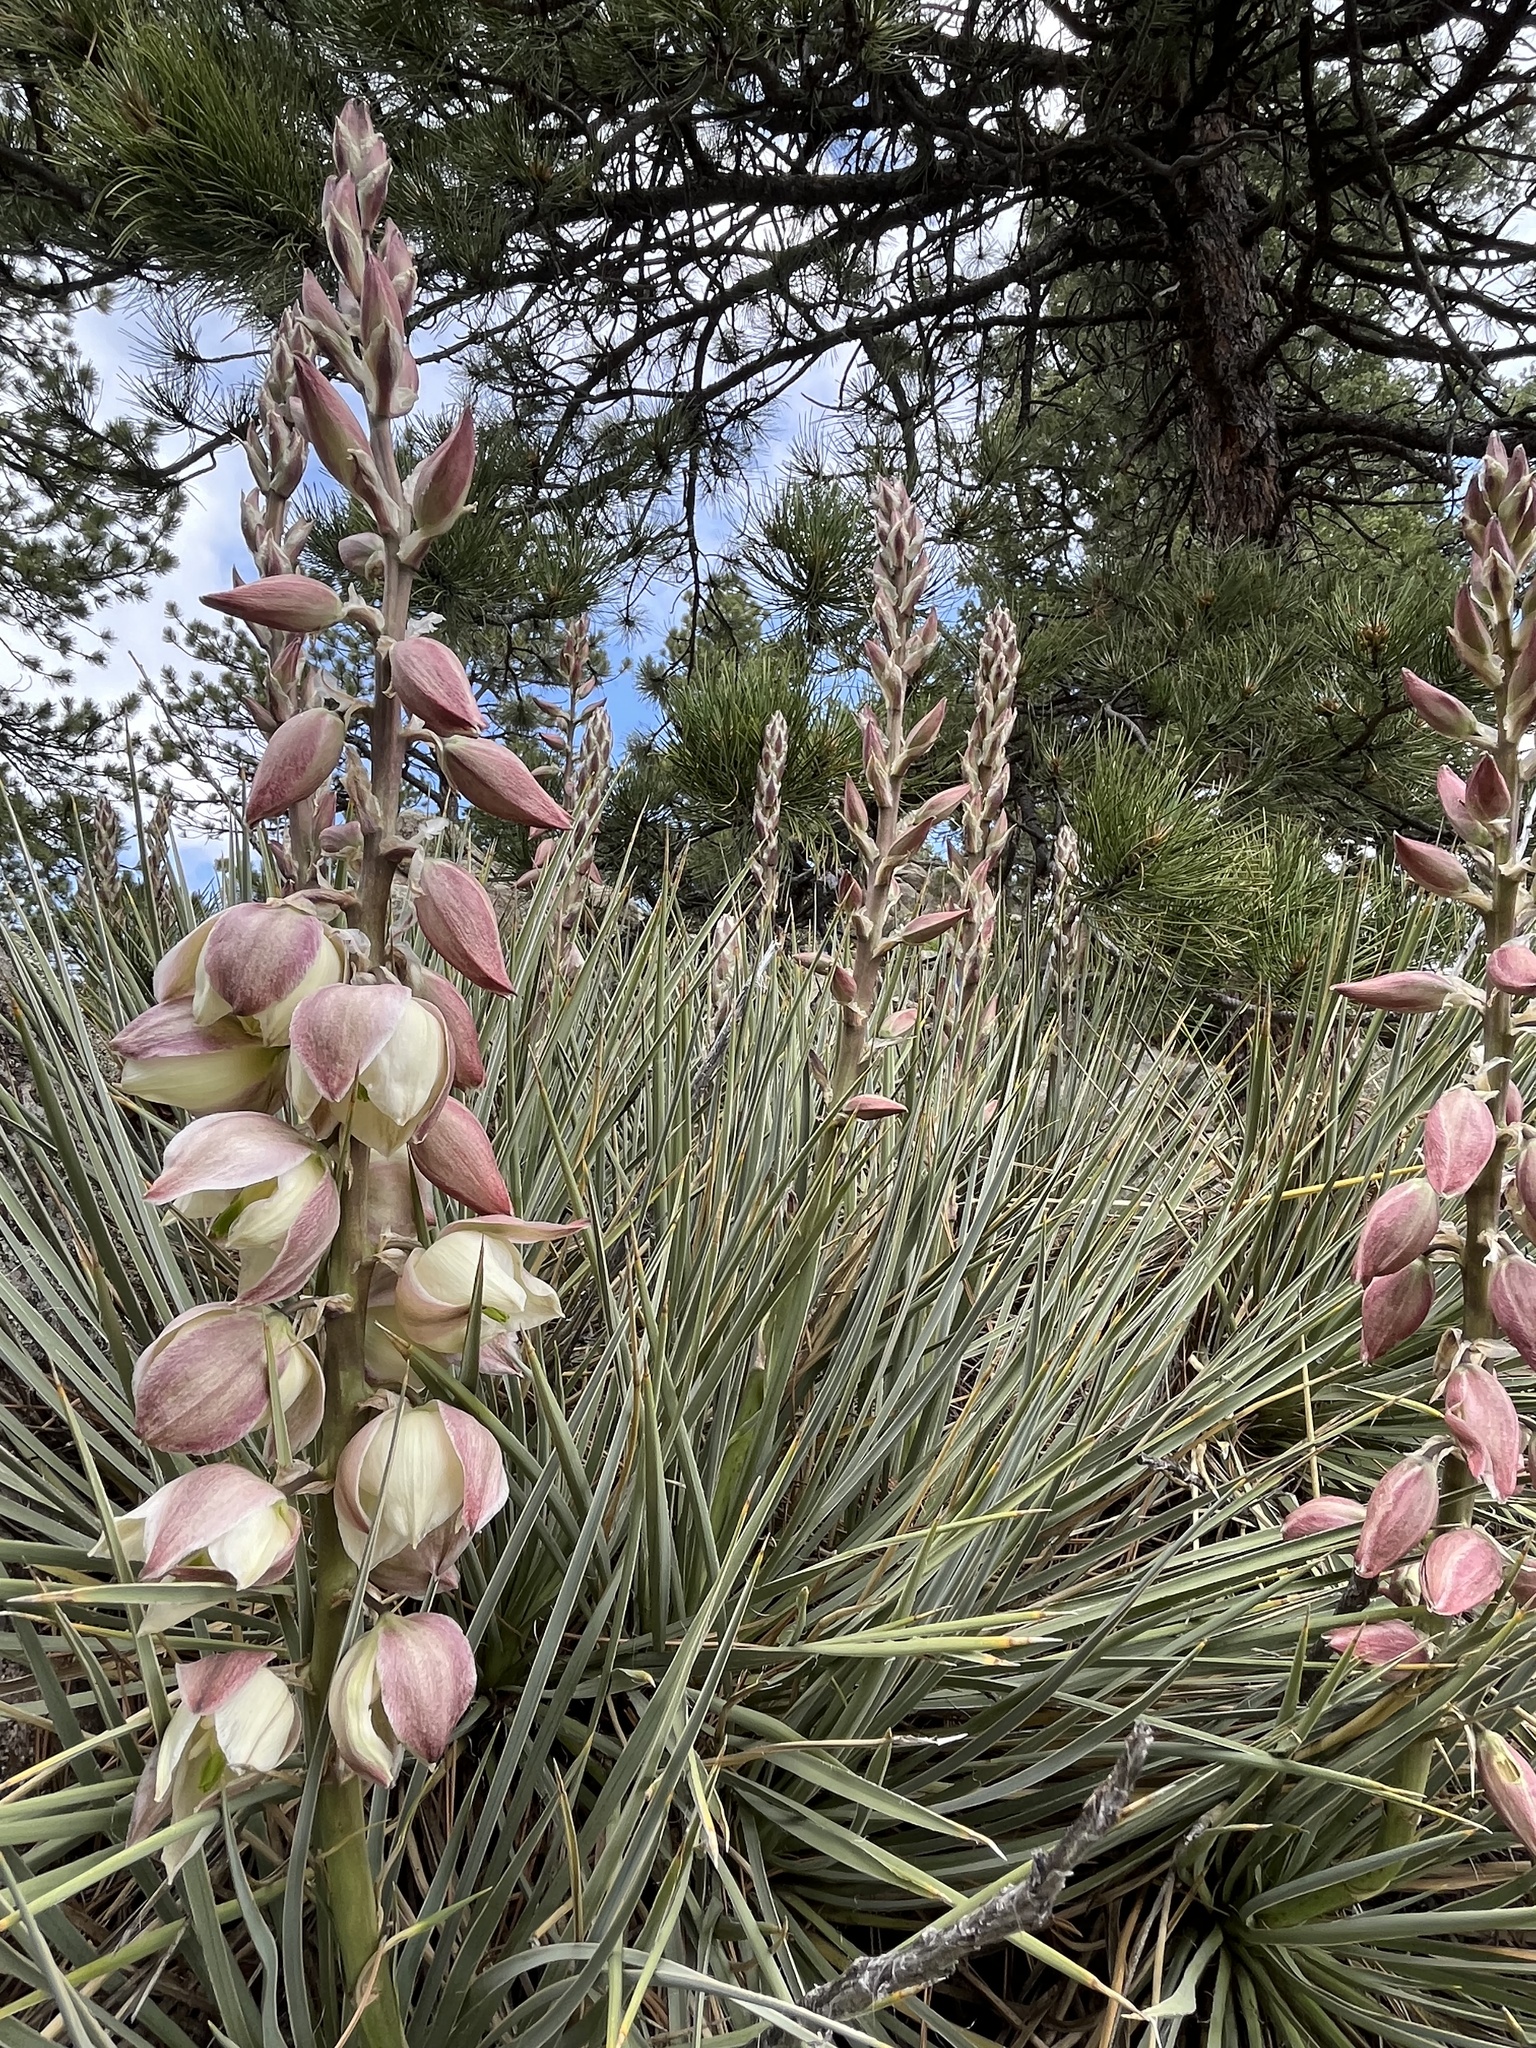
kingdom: Plantae
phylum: Tracheophyta
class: Liliopsida
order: Asparagales
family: Asparagaceae
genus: Yucca
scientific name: Yucca glauca
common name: Great plains yucca
